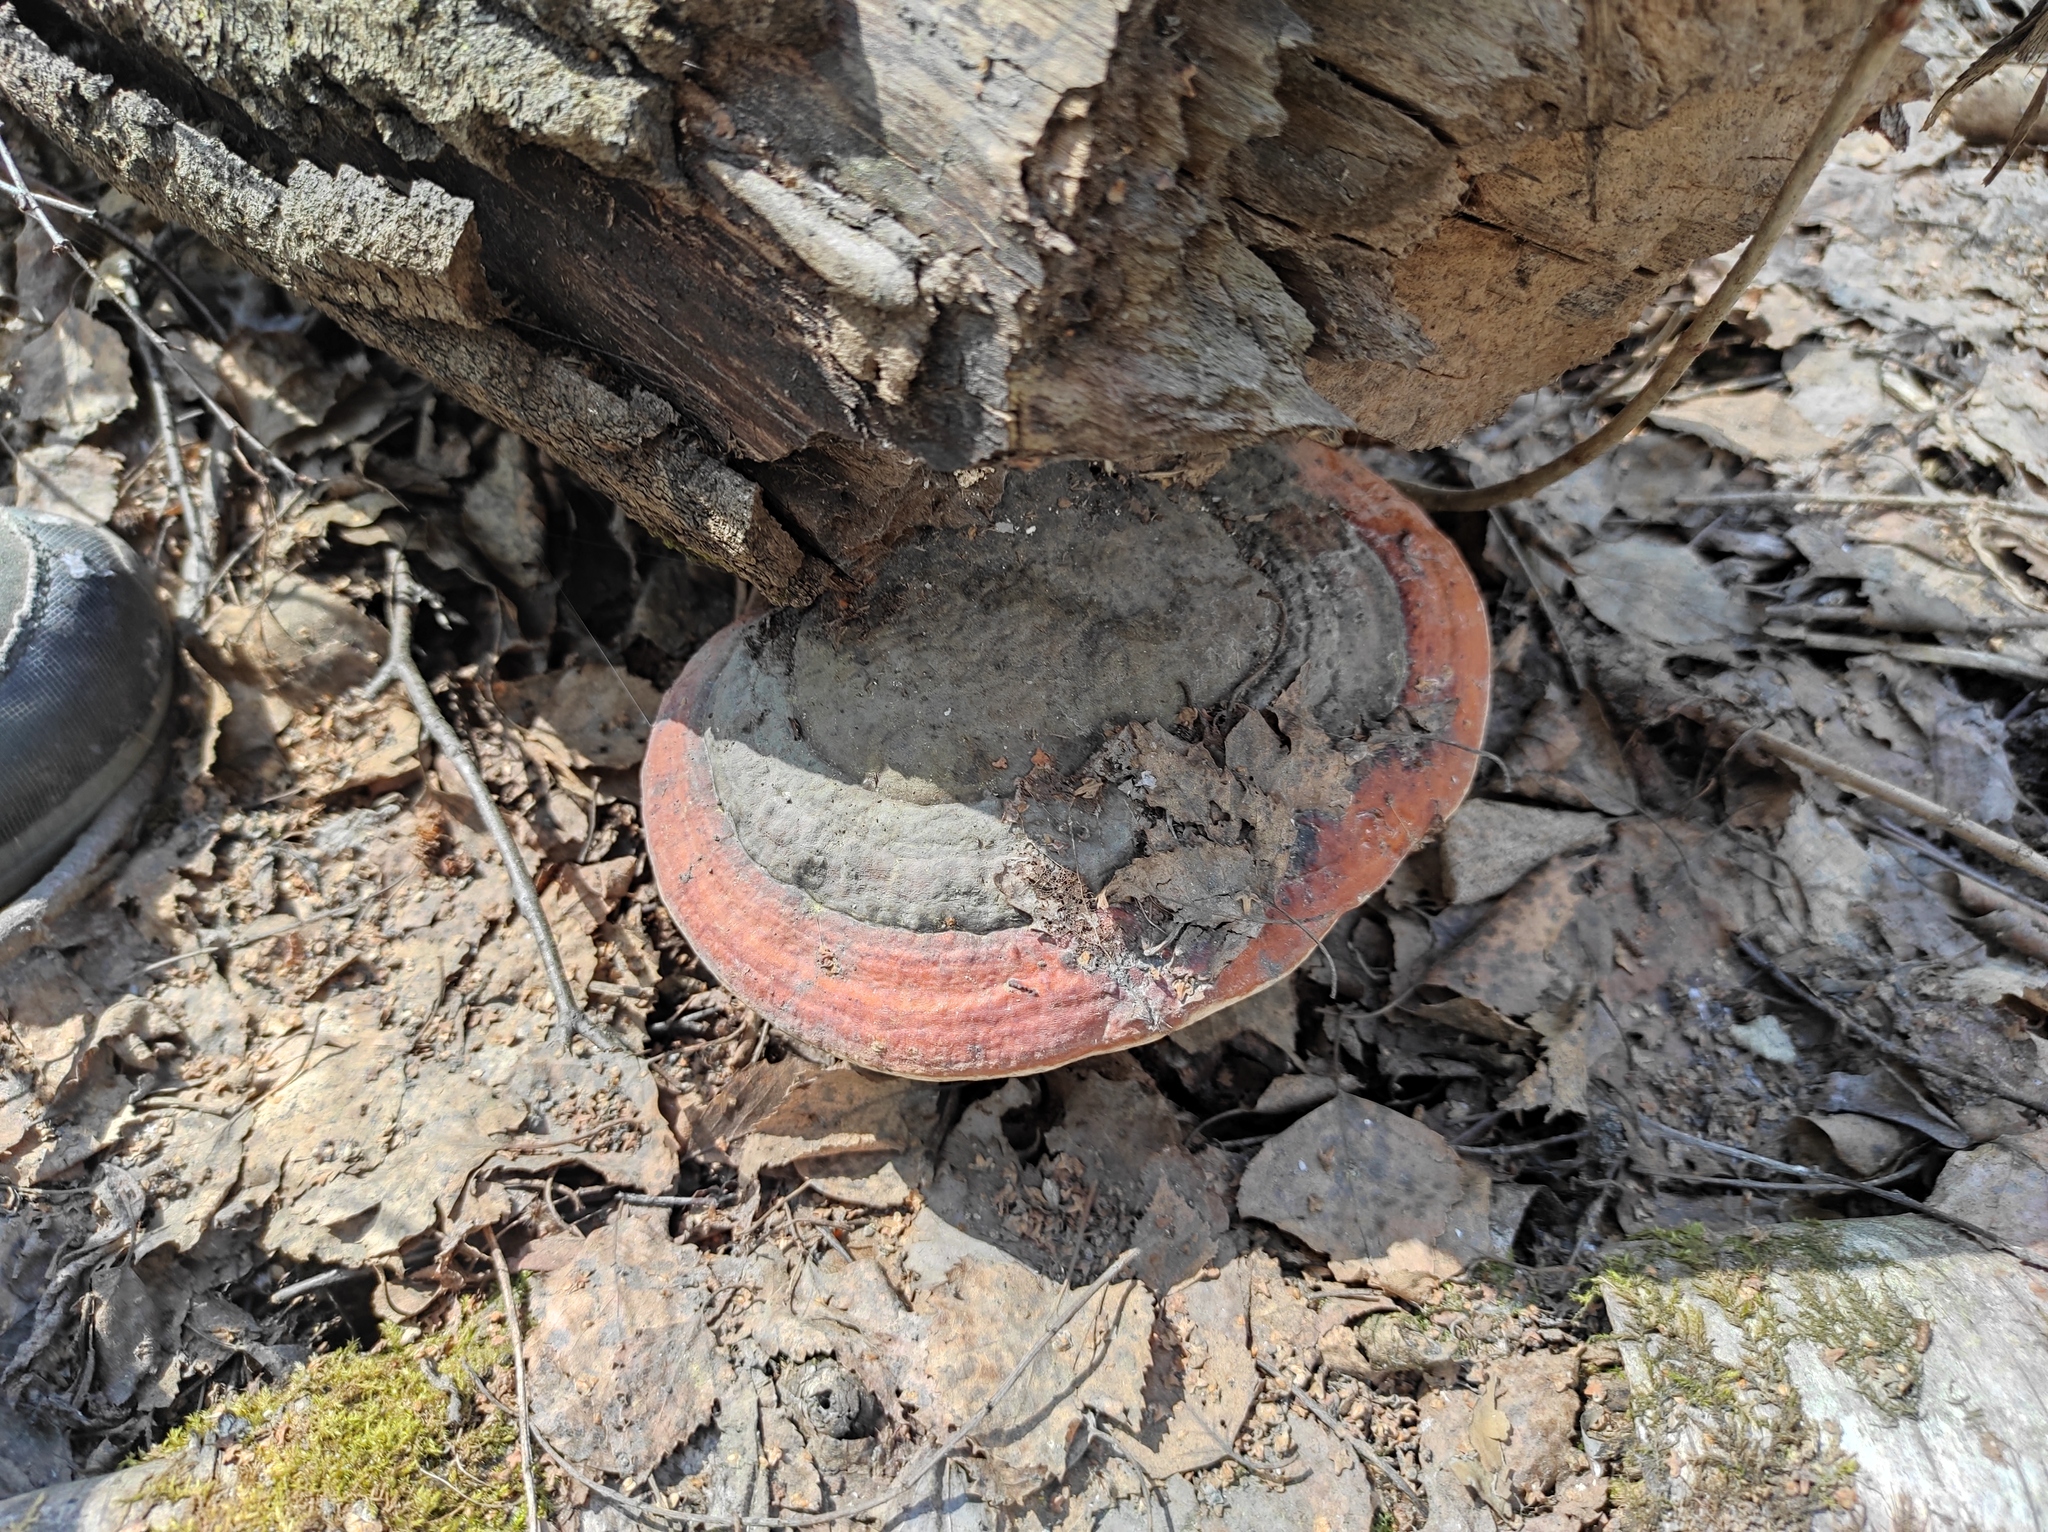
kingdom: Fungi
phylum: Basidiomycota
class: Agaricomycetes
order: Polyporales
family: Fomitopsidaceae
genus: Fomitopsis
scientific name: Fomitopsis pinicola
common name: Red-belted bracket
